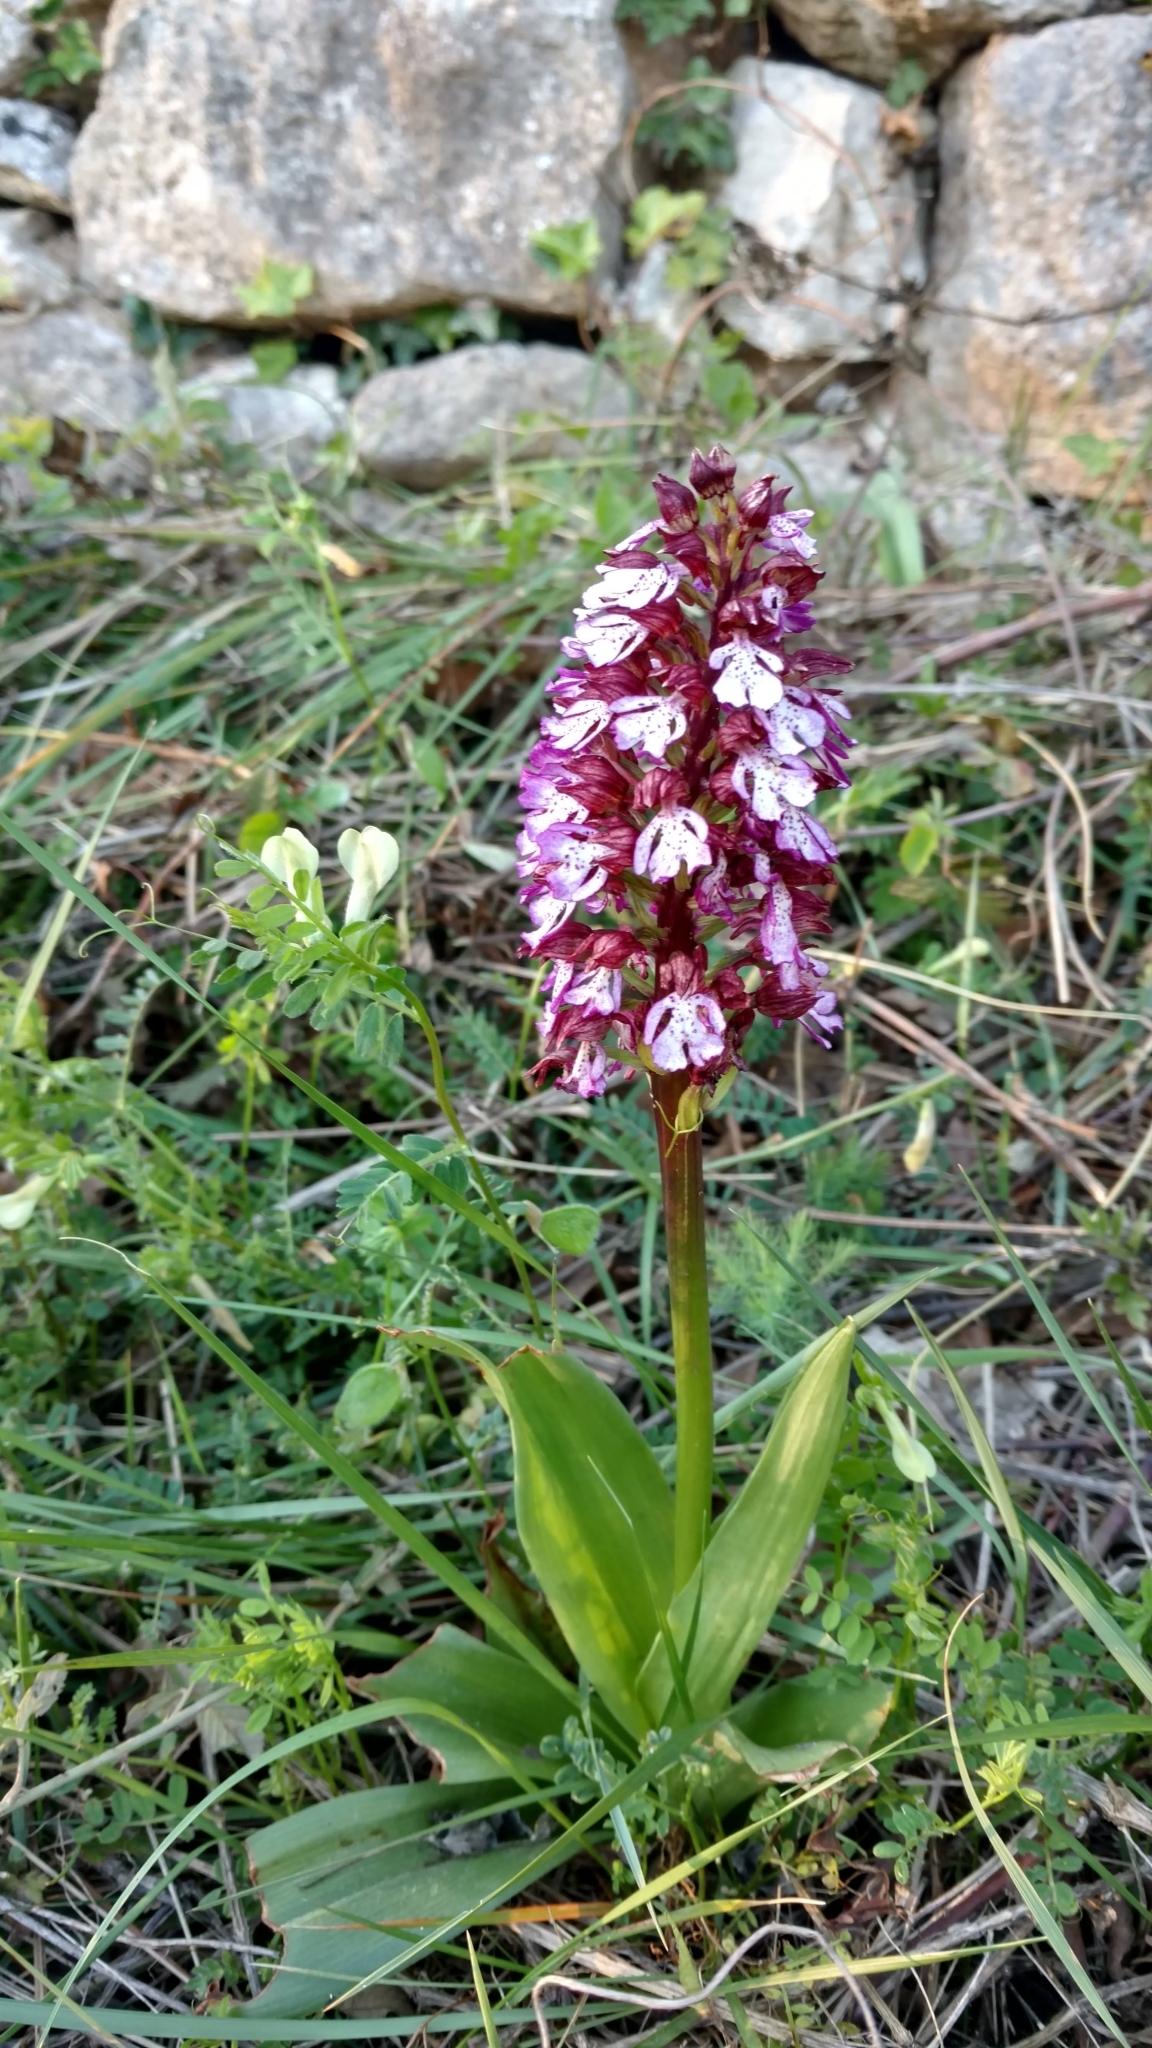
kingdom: Plantae
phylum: Tracheophyta
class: Liliopsida
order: Asparagales
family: Orchidaceae
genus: Orchis
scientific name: Orchis purpurea
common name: Lady orchid
